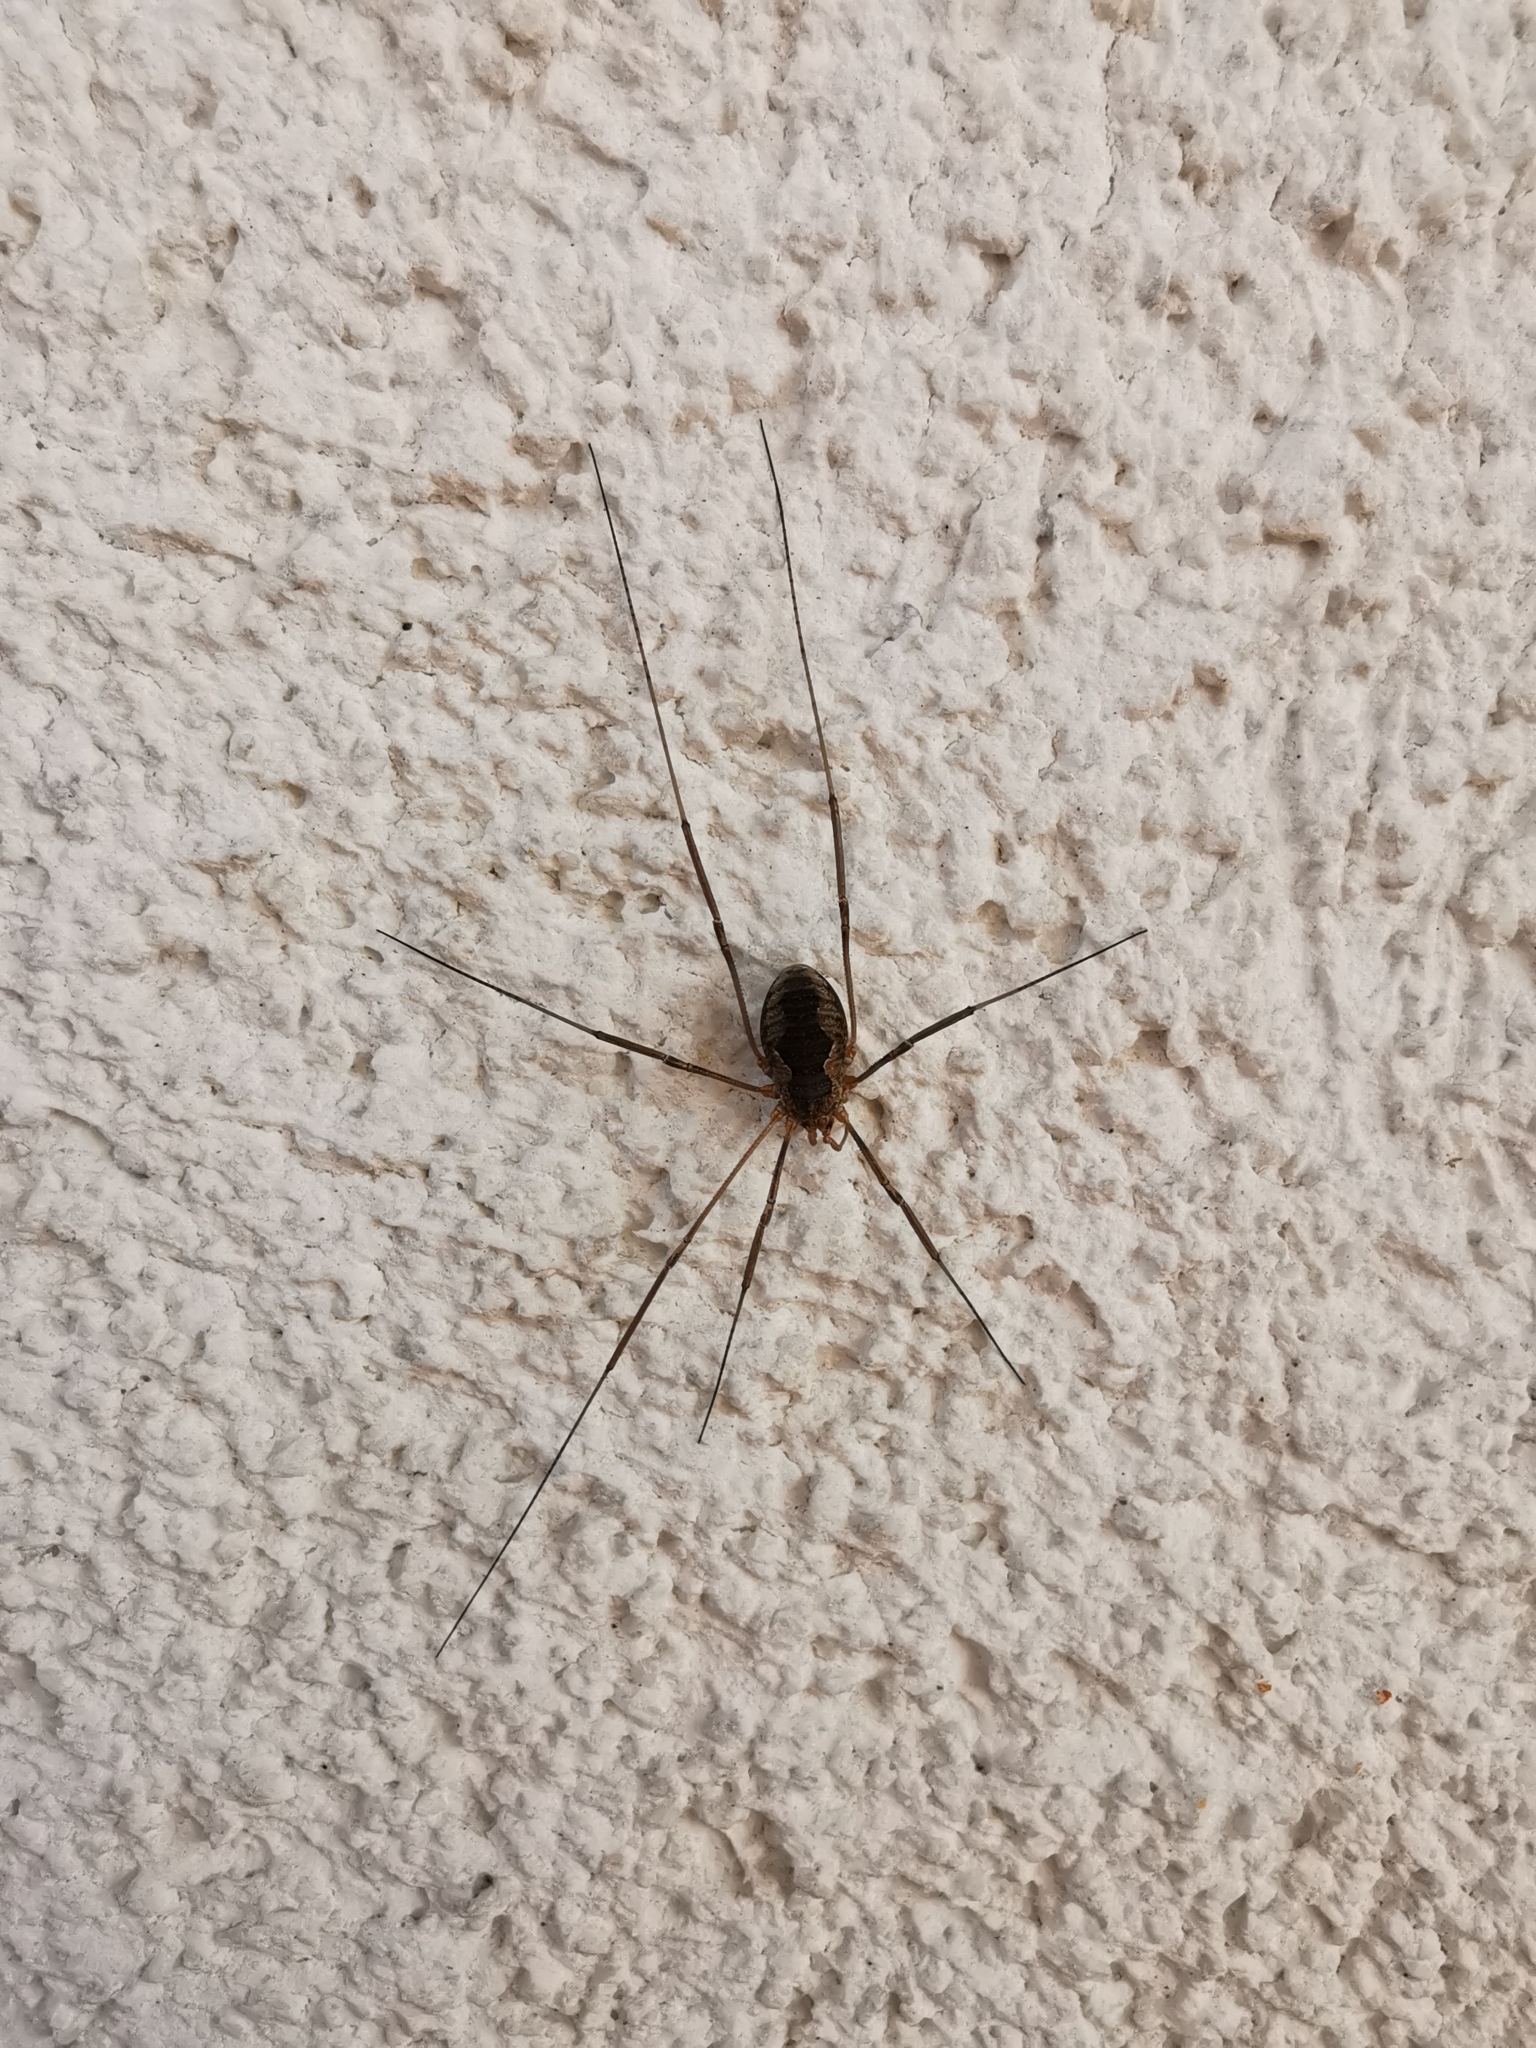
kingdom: Animalia
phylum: Arthropoda
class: Arachnida
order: Opiliones
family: Phalangiidae
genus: Phalangium
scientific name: Phalangium opilio
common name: Daddy longleg
